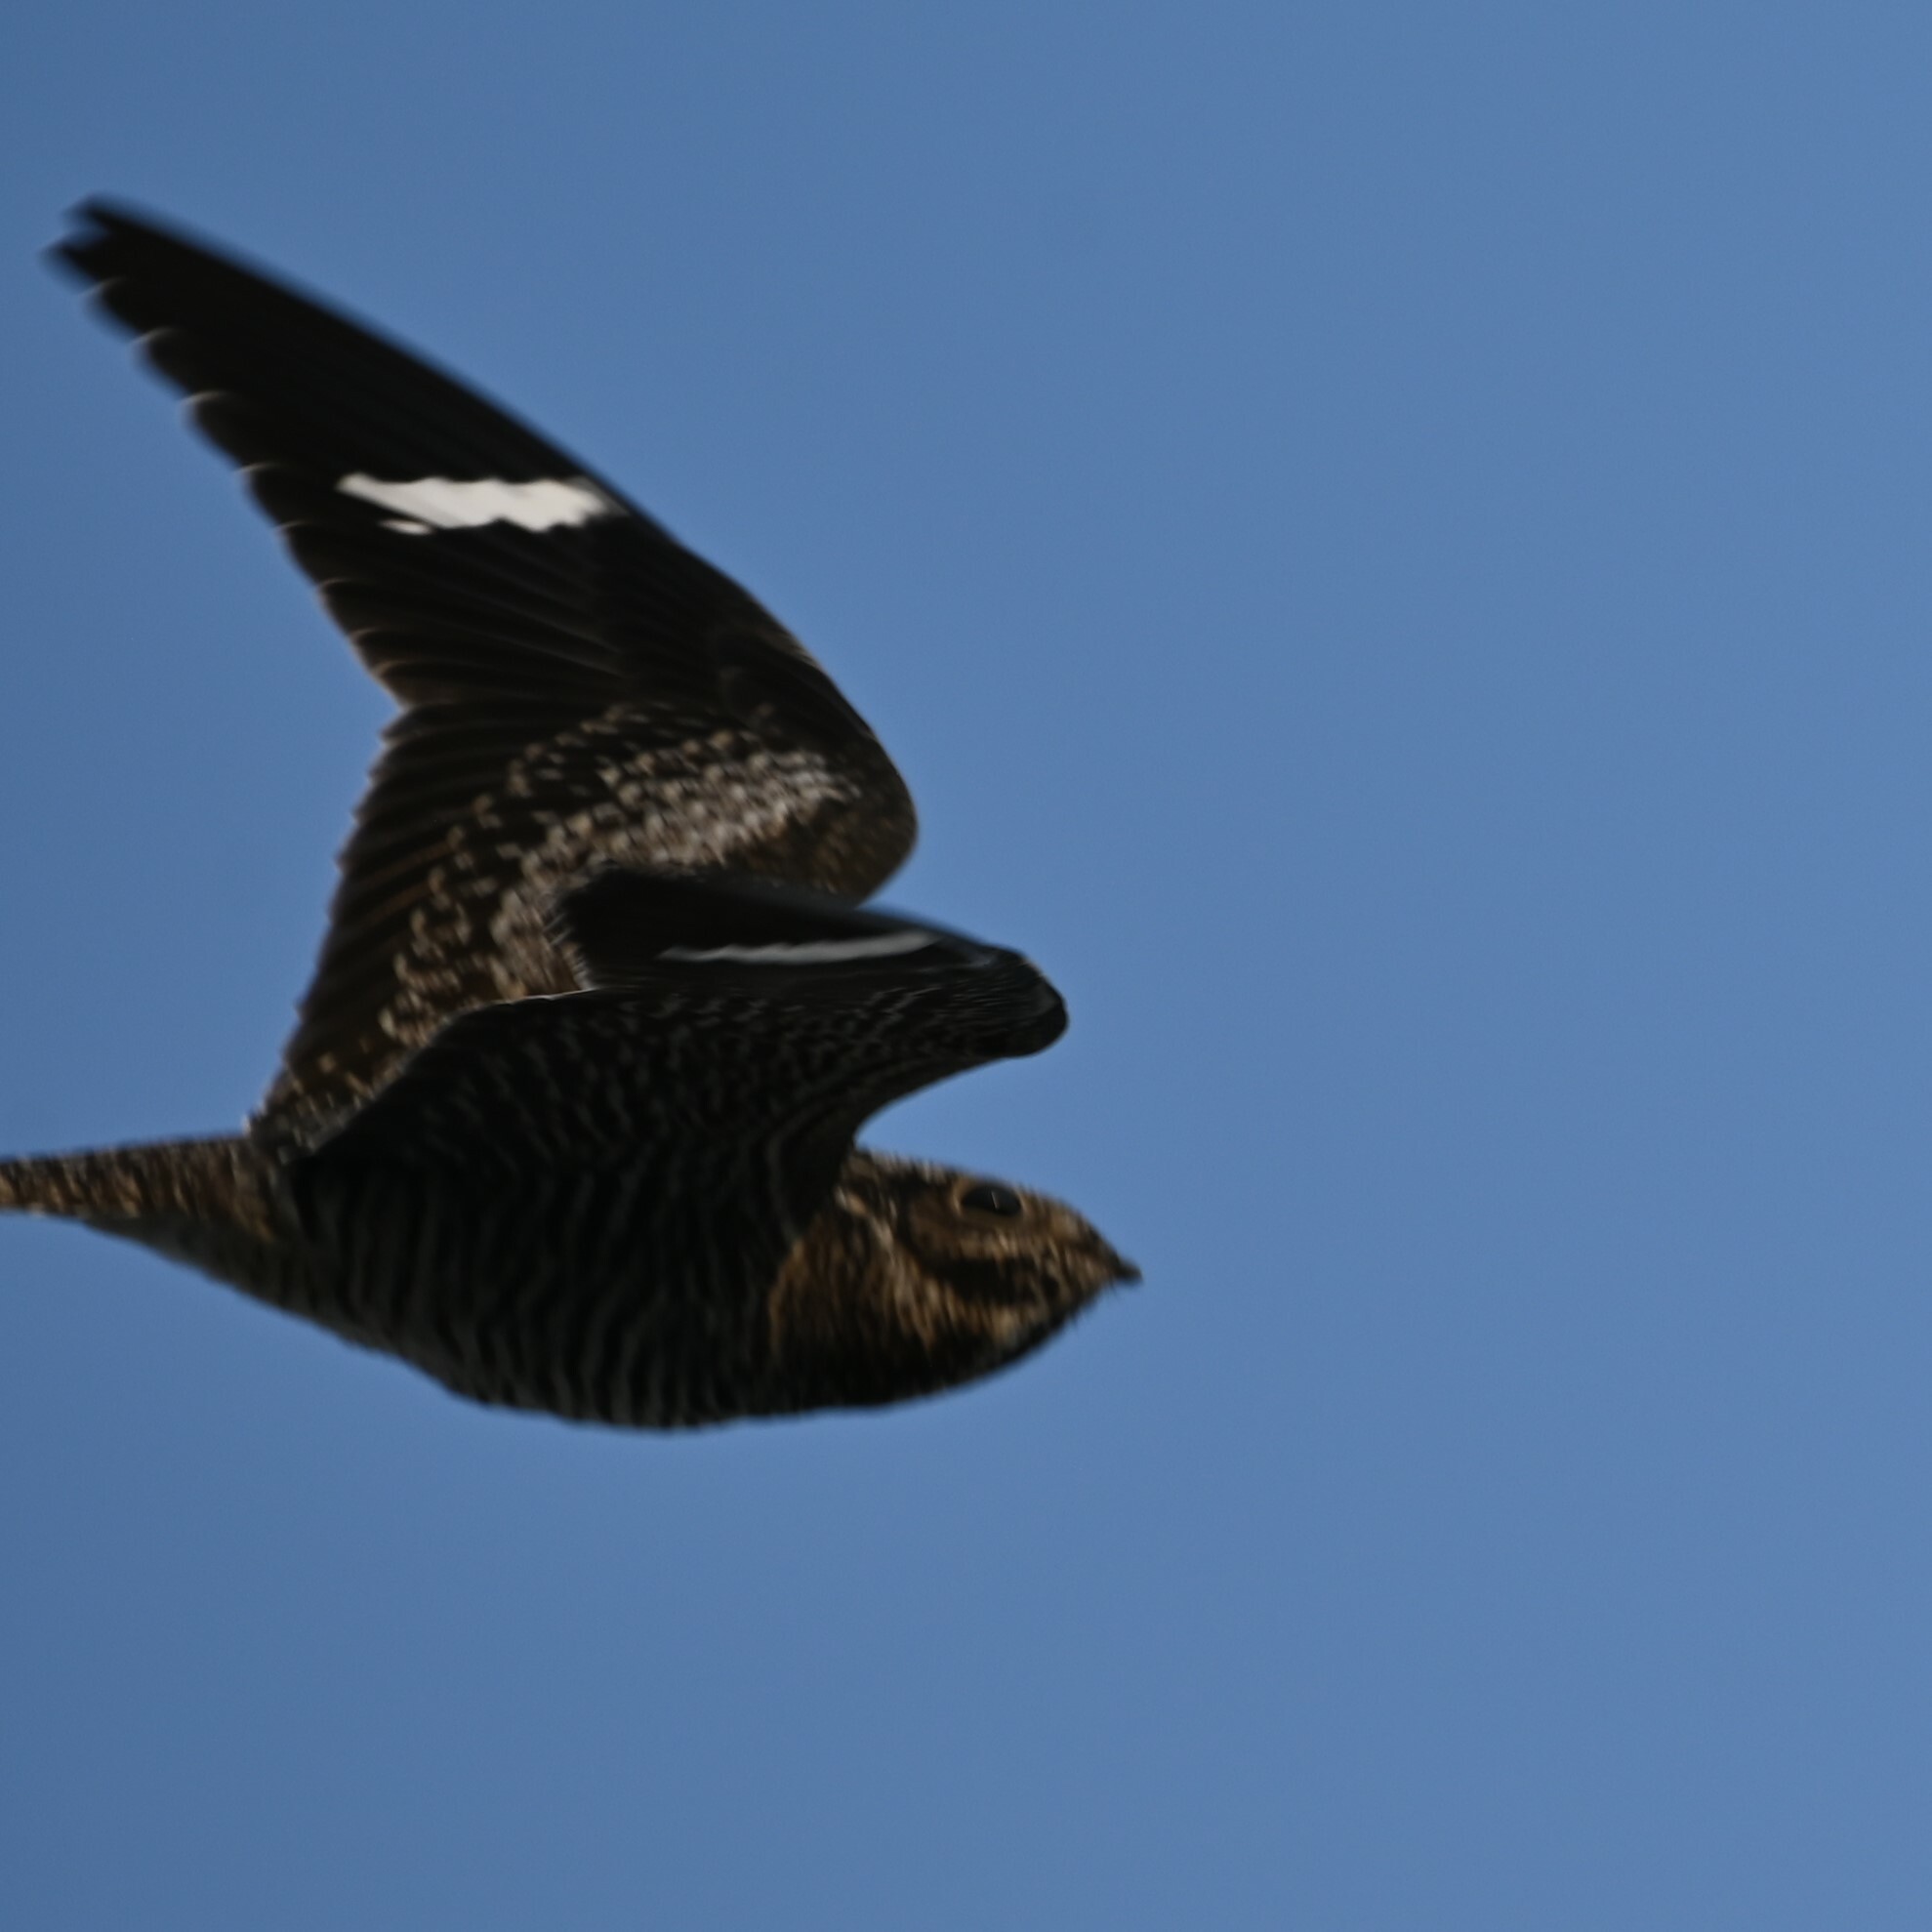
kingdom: Animalia
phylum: Chordata
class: Aves
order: Caprimulgiformes
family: Caprimulgidae
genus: Chordeiles
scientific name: Chordeiles minor
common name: Common nighthawk
